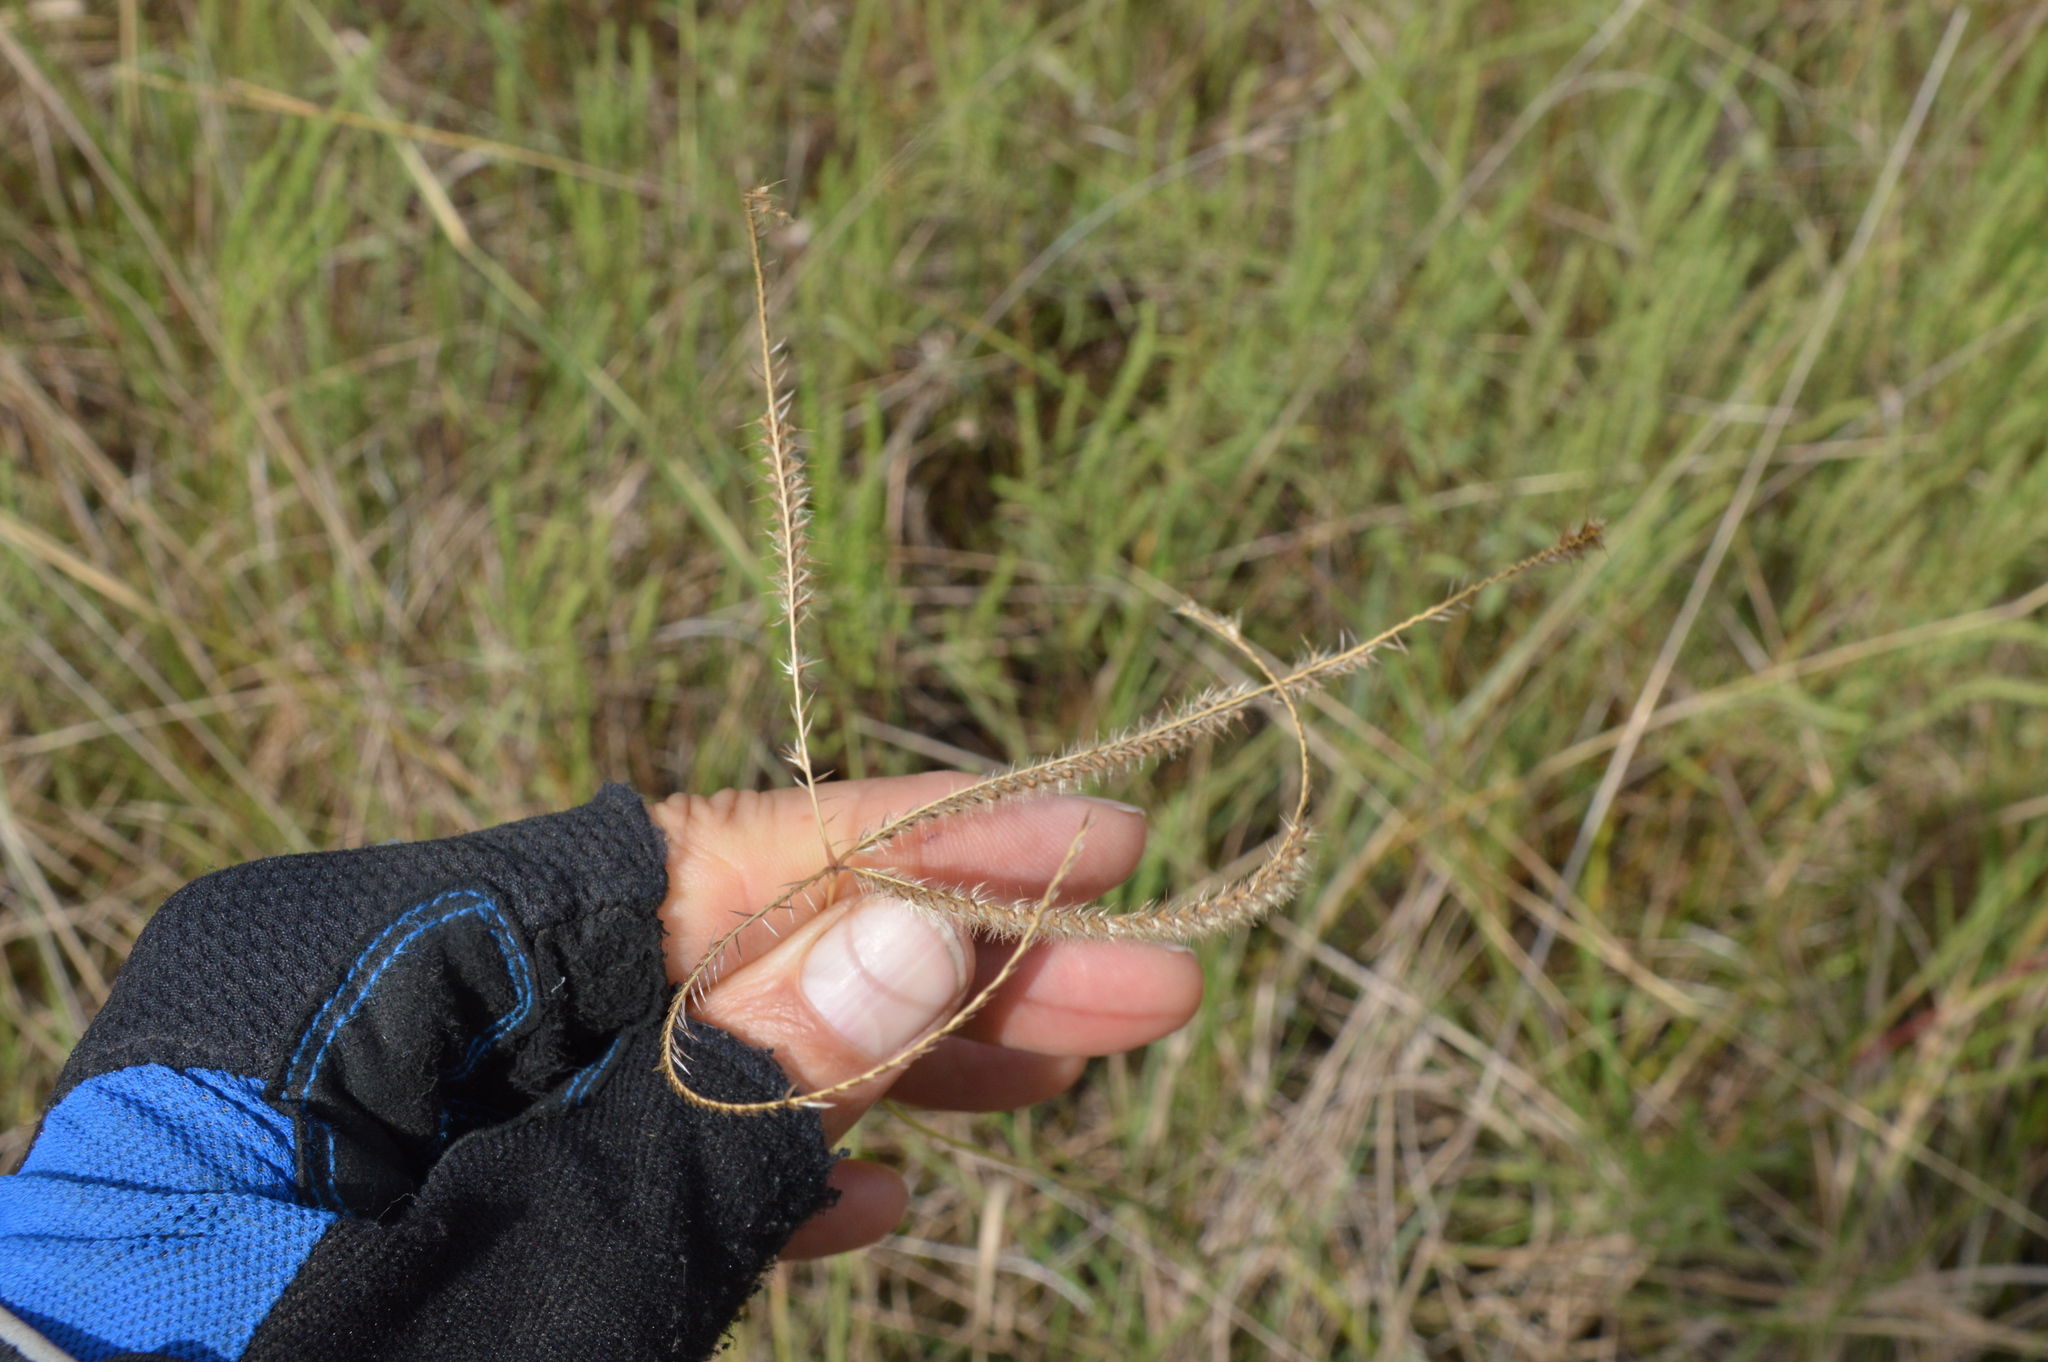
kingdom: Plantae
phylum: Tracheophyta
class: Liliopsida
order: Poales
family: Poaceae
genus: Stapfochloa
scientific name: Stapfochloa canterae
